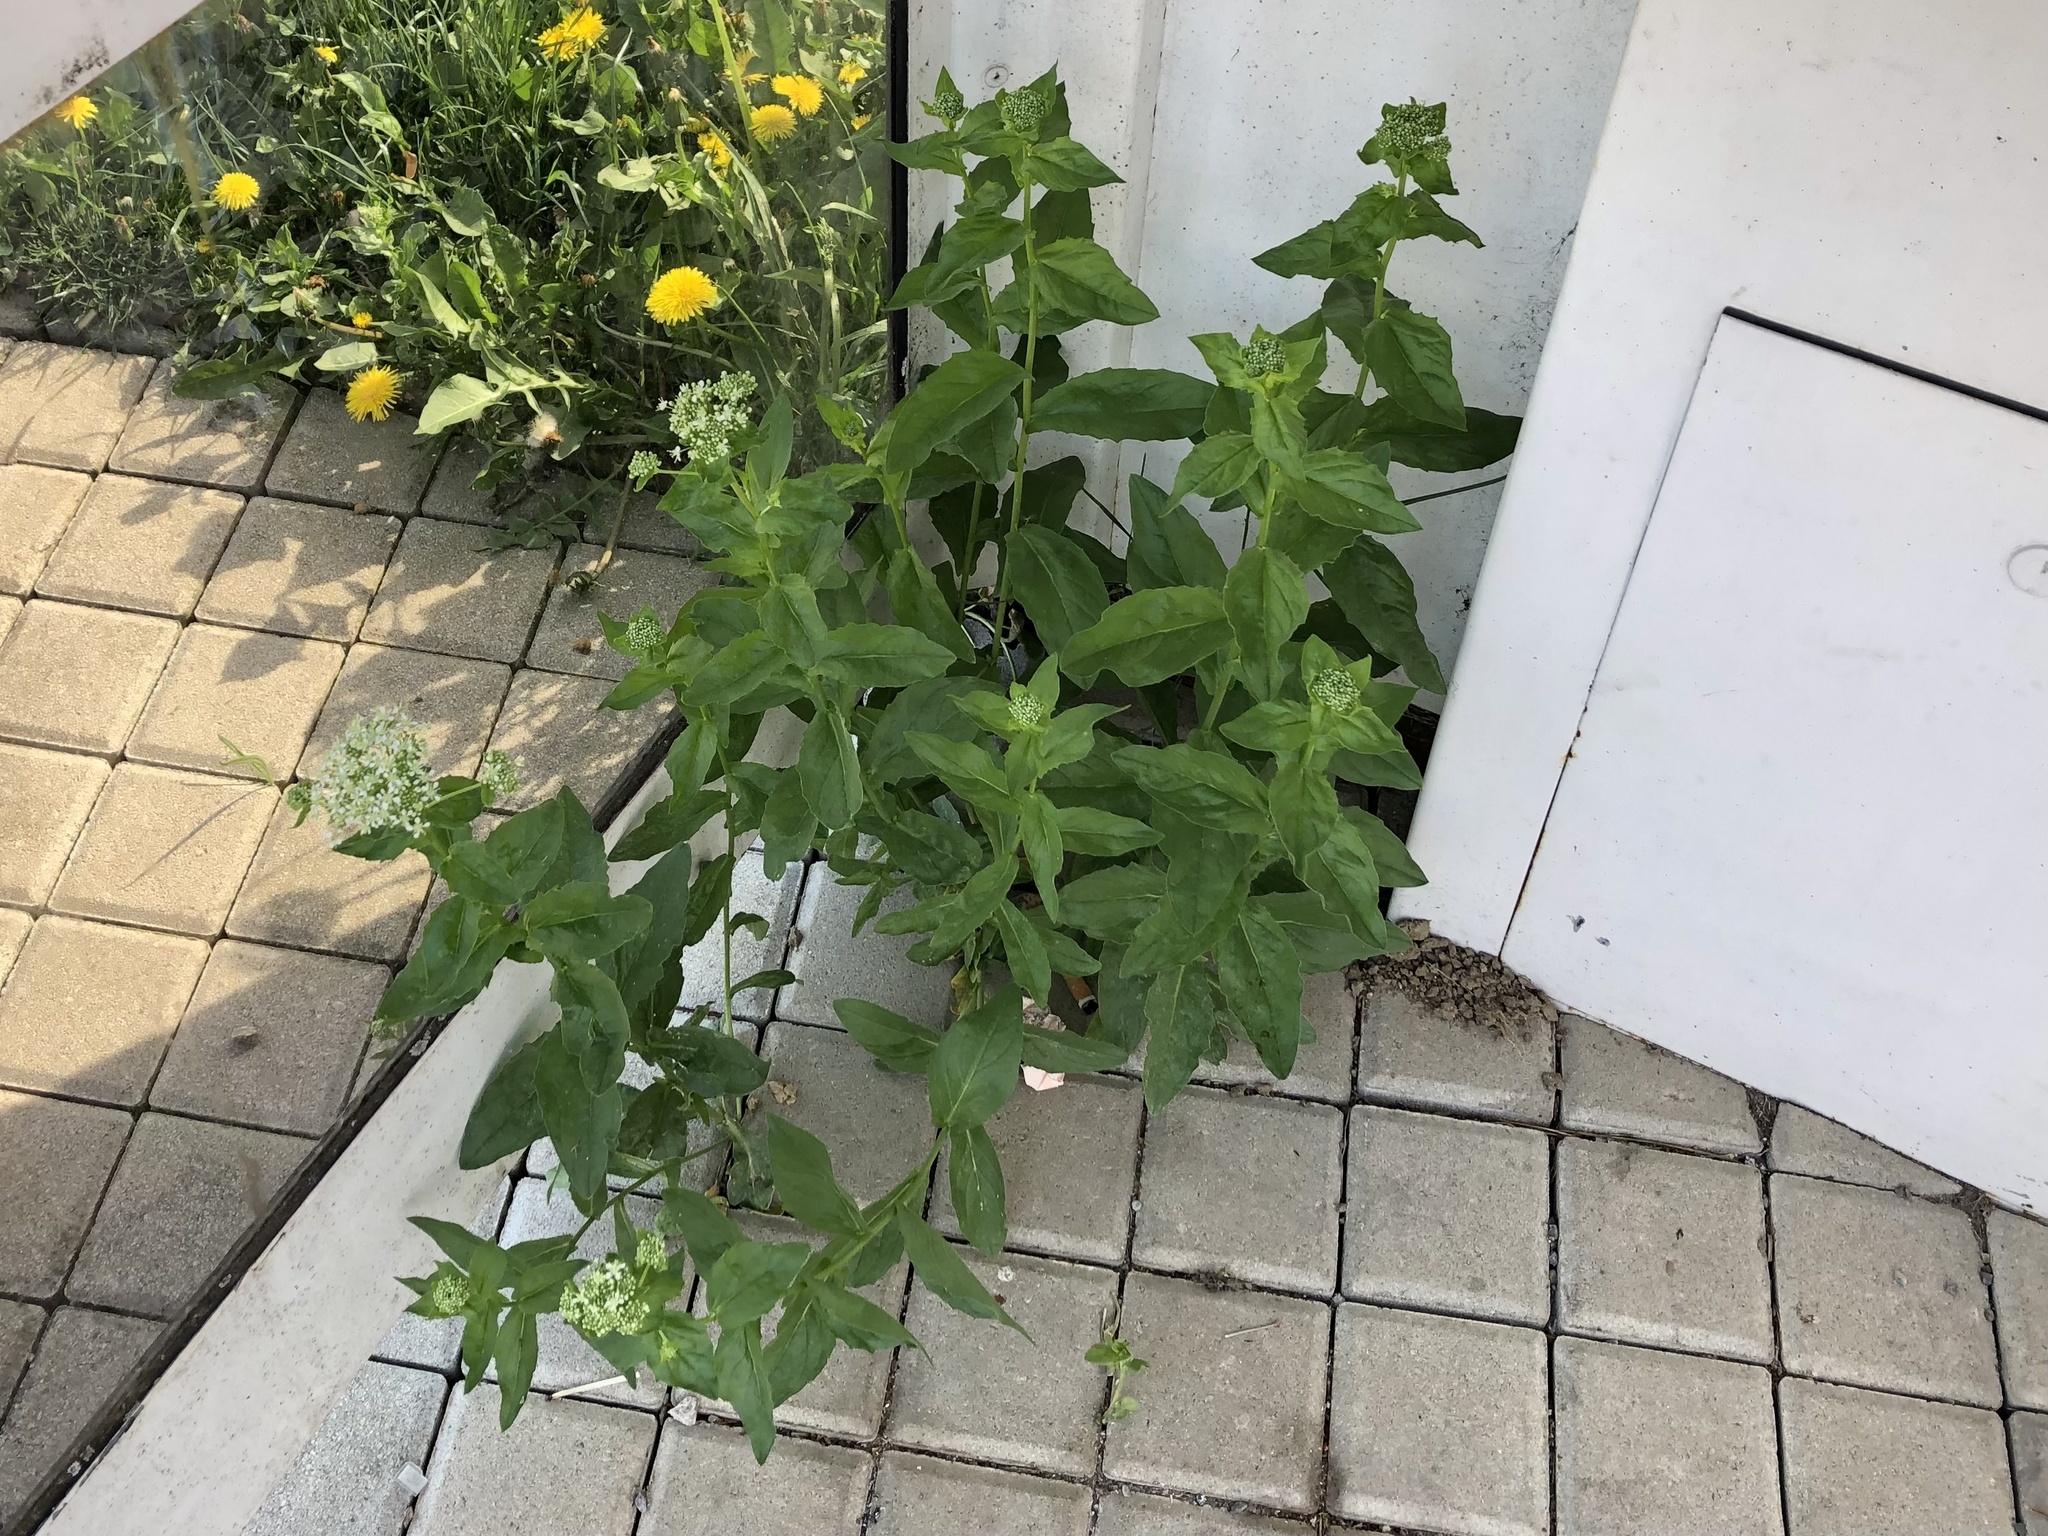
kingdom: Plantae
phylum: Tracheophyta
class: Magnoliopsida
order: Brassicales
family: Brassicaceae
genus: Lepidium
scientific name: Lepidium draba
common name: Hoary cress
